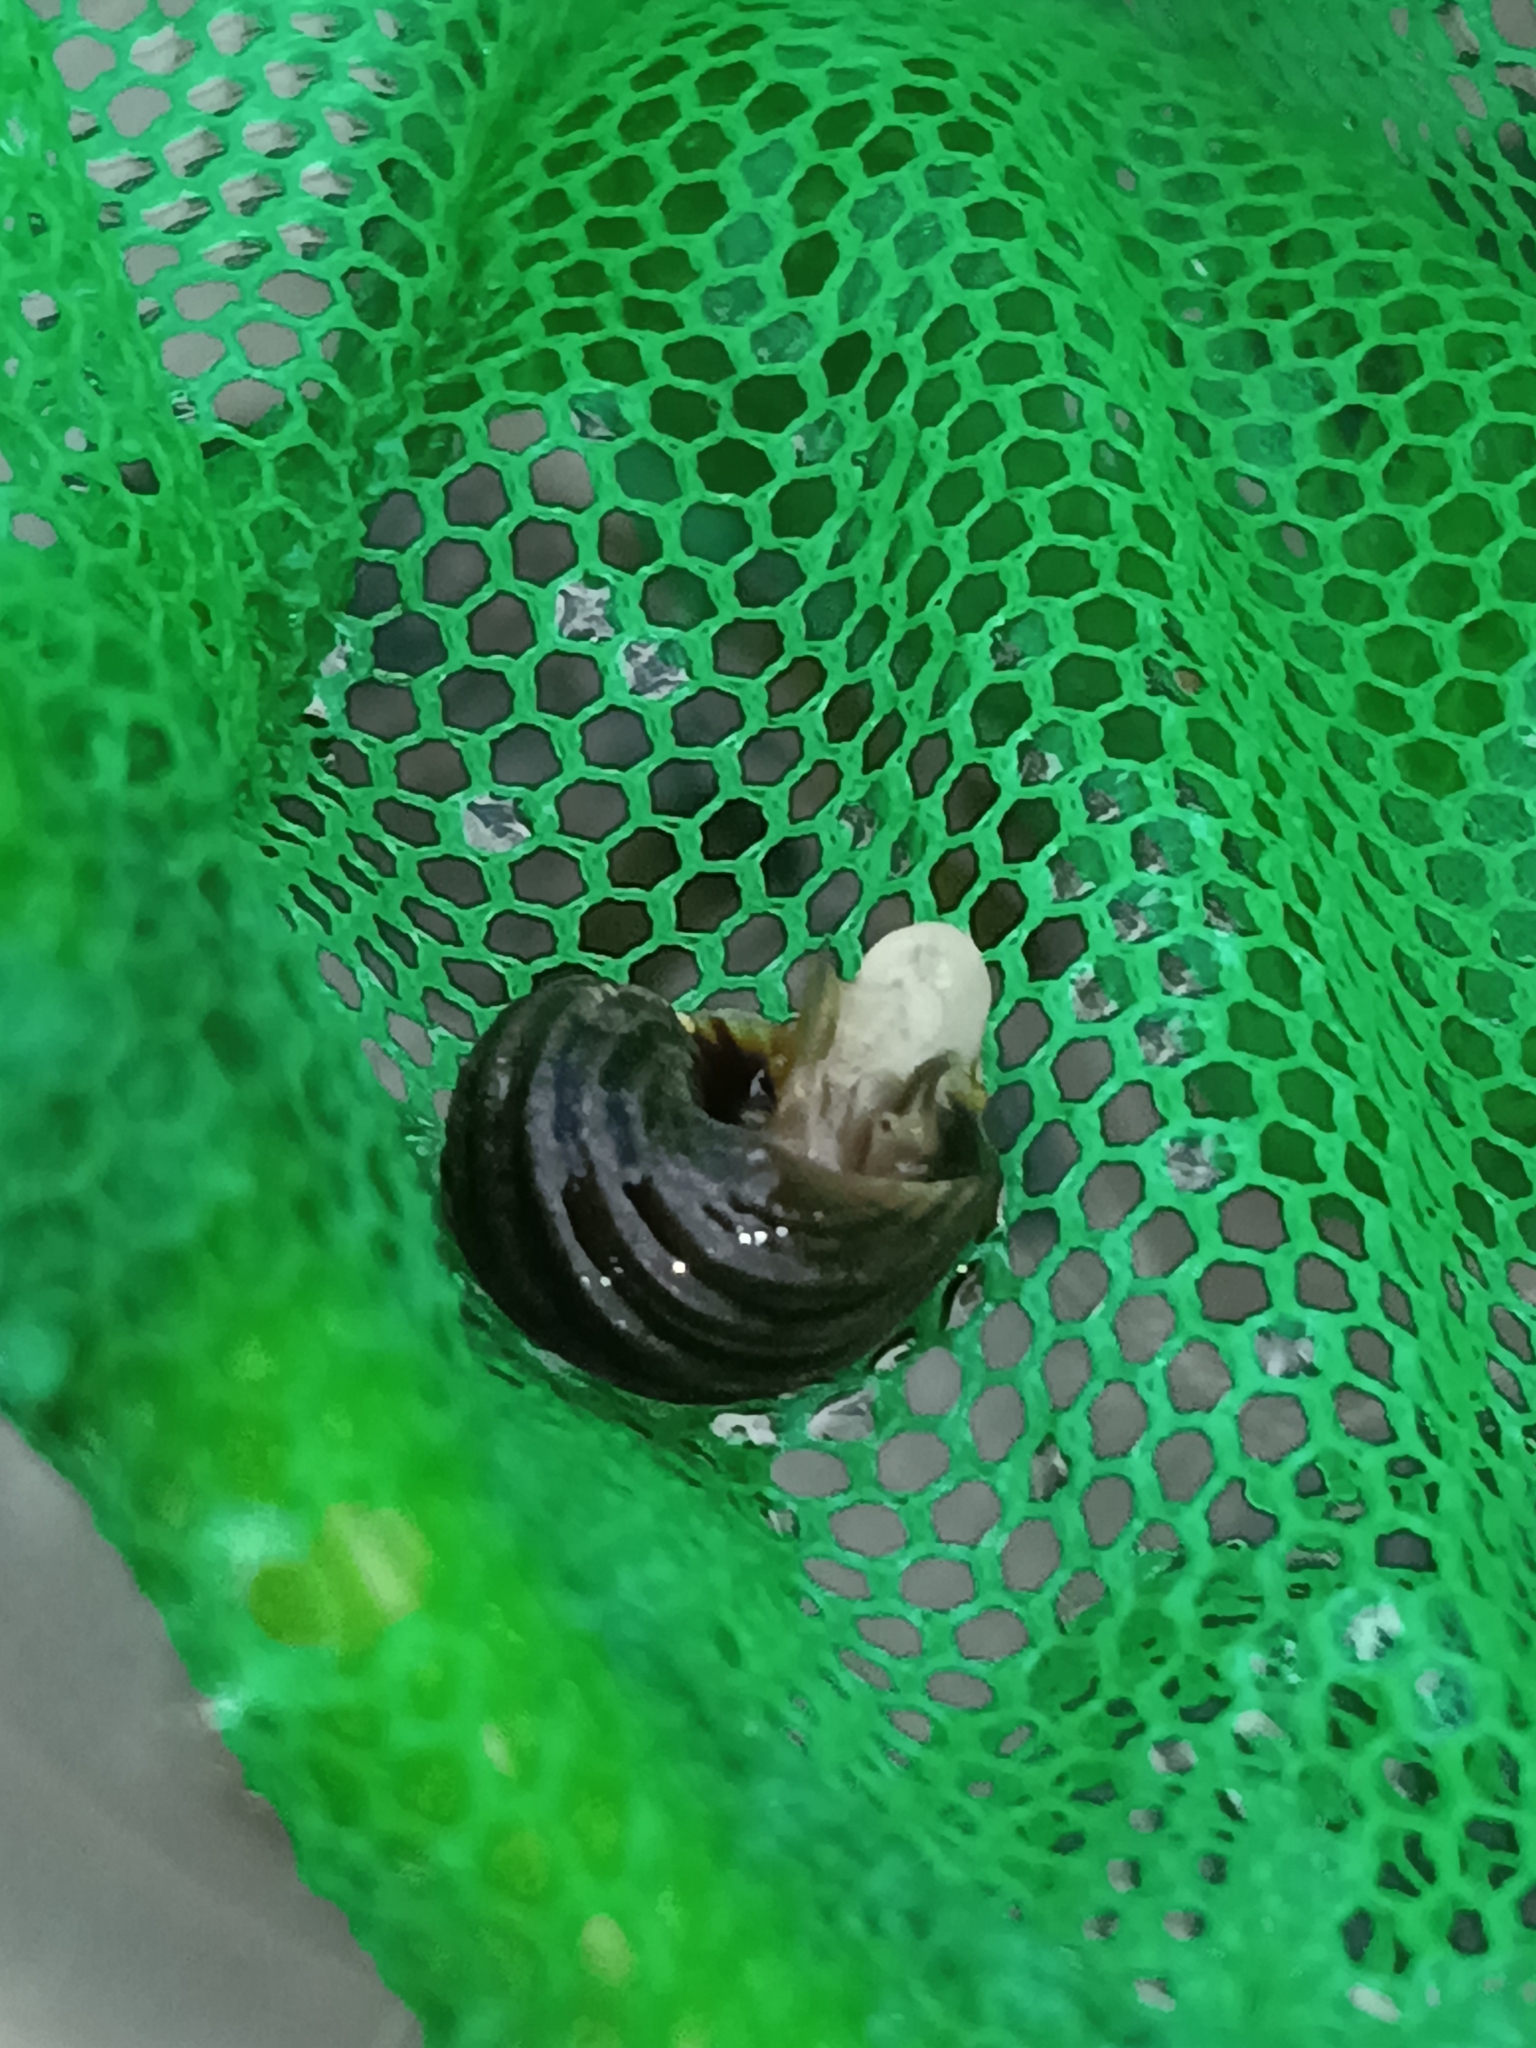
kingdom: Animalia
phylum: Mollusca
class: Gastropoda
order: Littorinimorpha
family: Littorinidae
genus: Littorina
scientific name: Littorina littorea
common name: Common periwinkle
